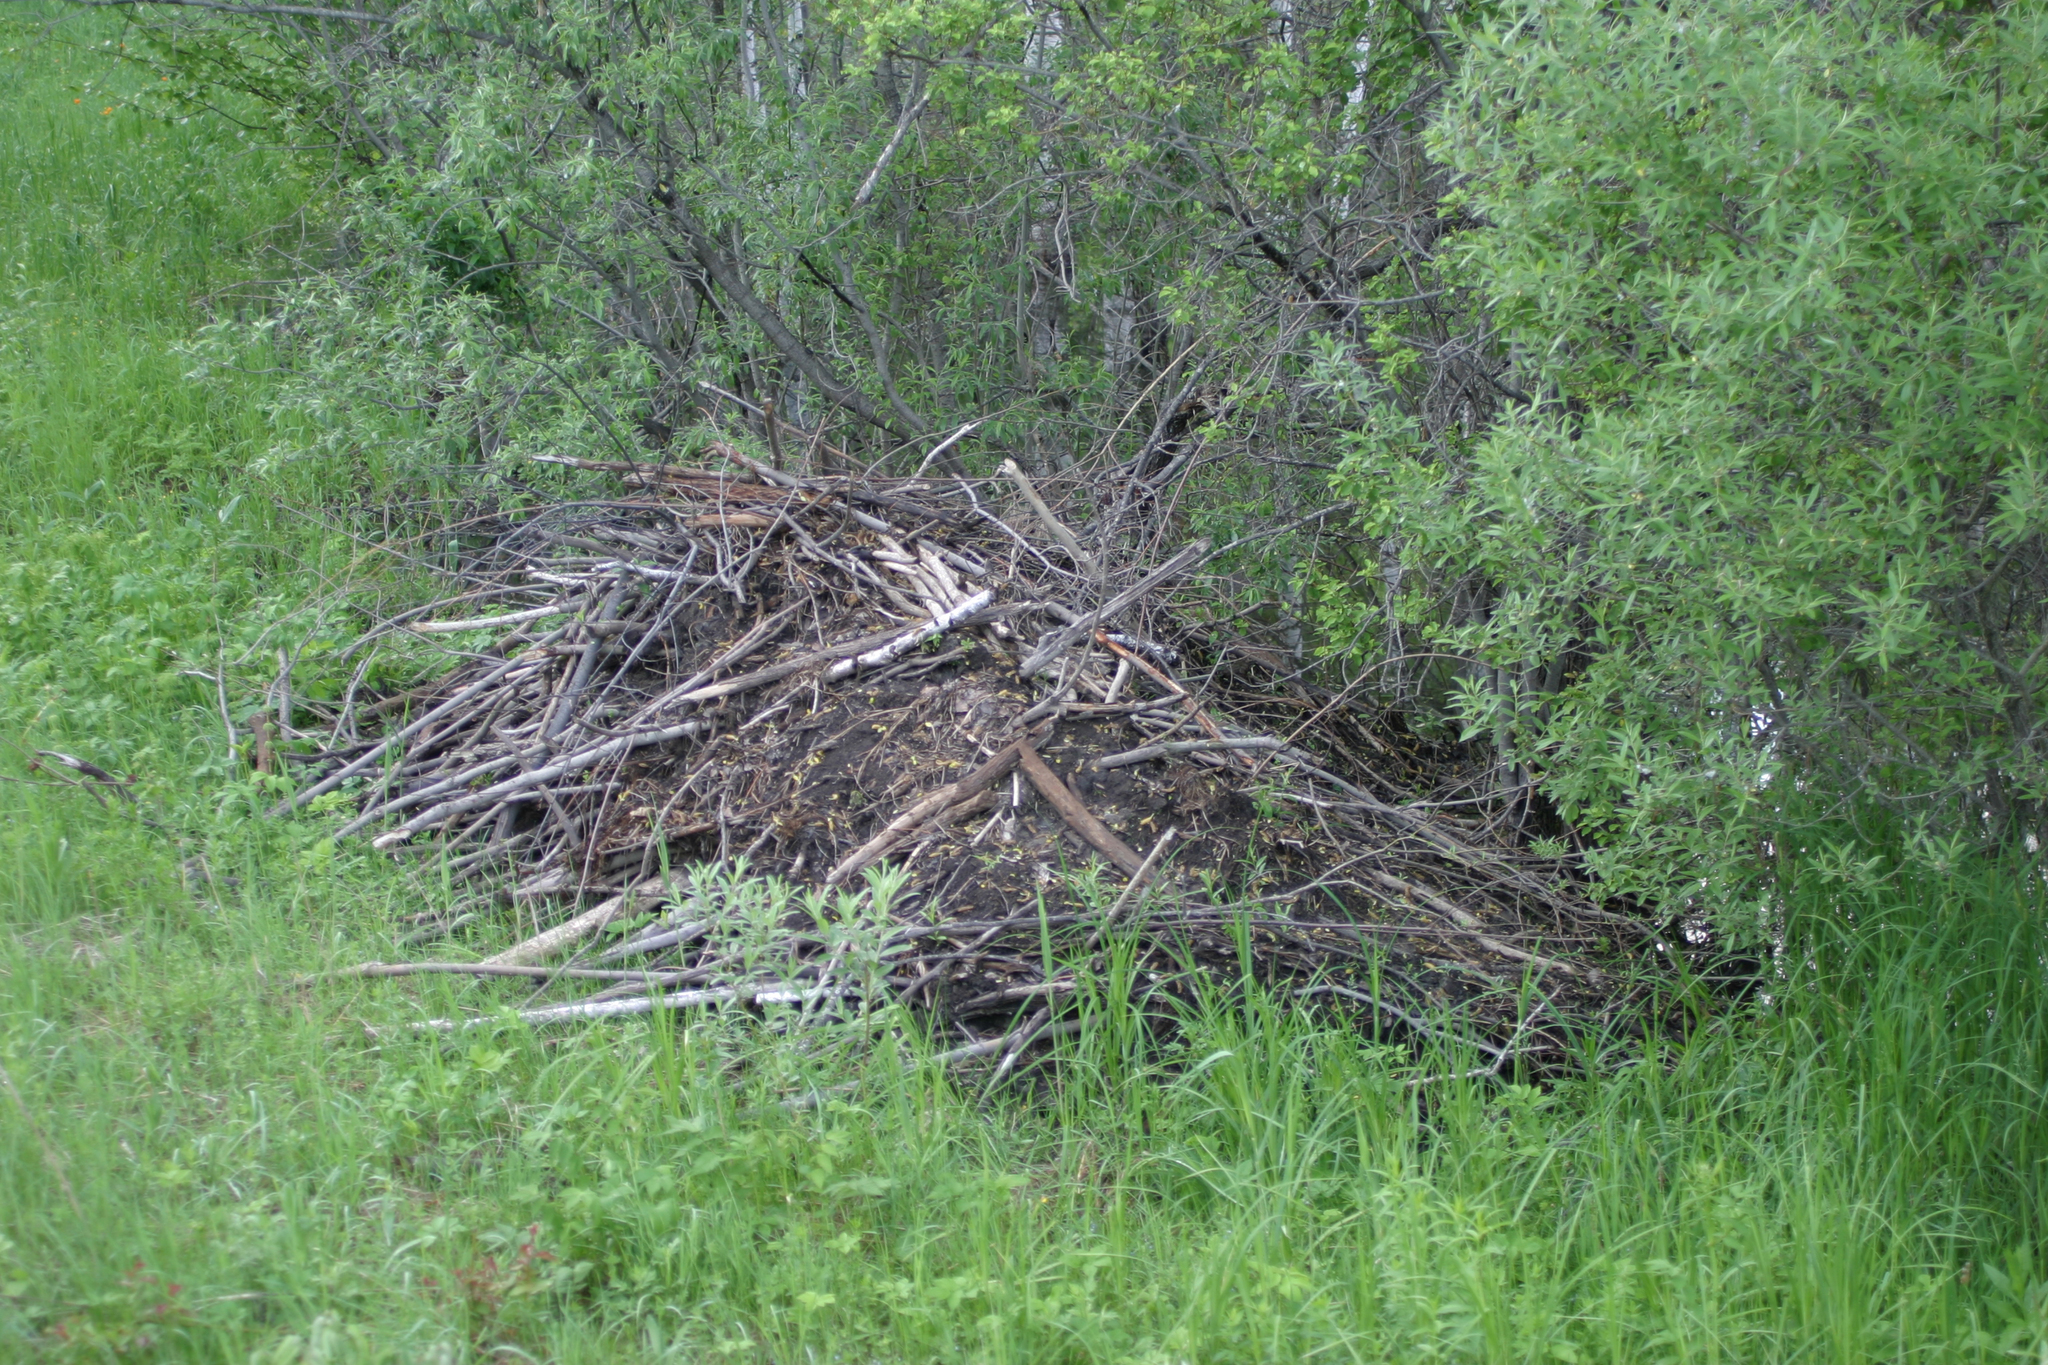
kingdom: Animalia
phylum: Chordata
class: Mammalia
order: Rodentia
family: Castoridae
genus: Castor
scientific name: Castor fiber
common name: Eurasian beaver
